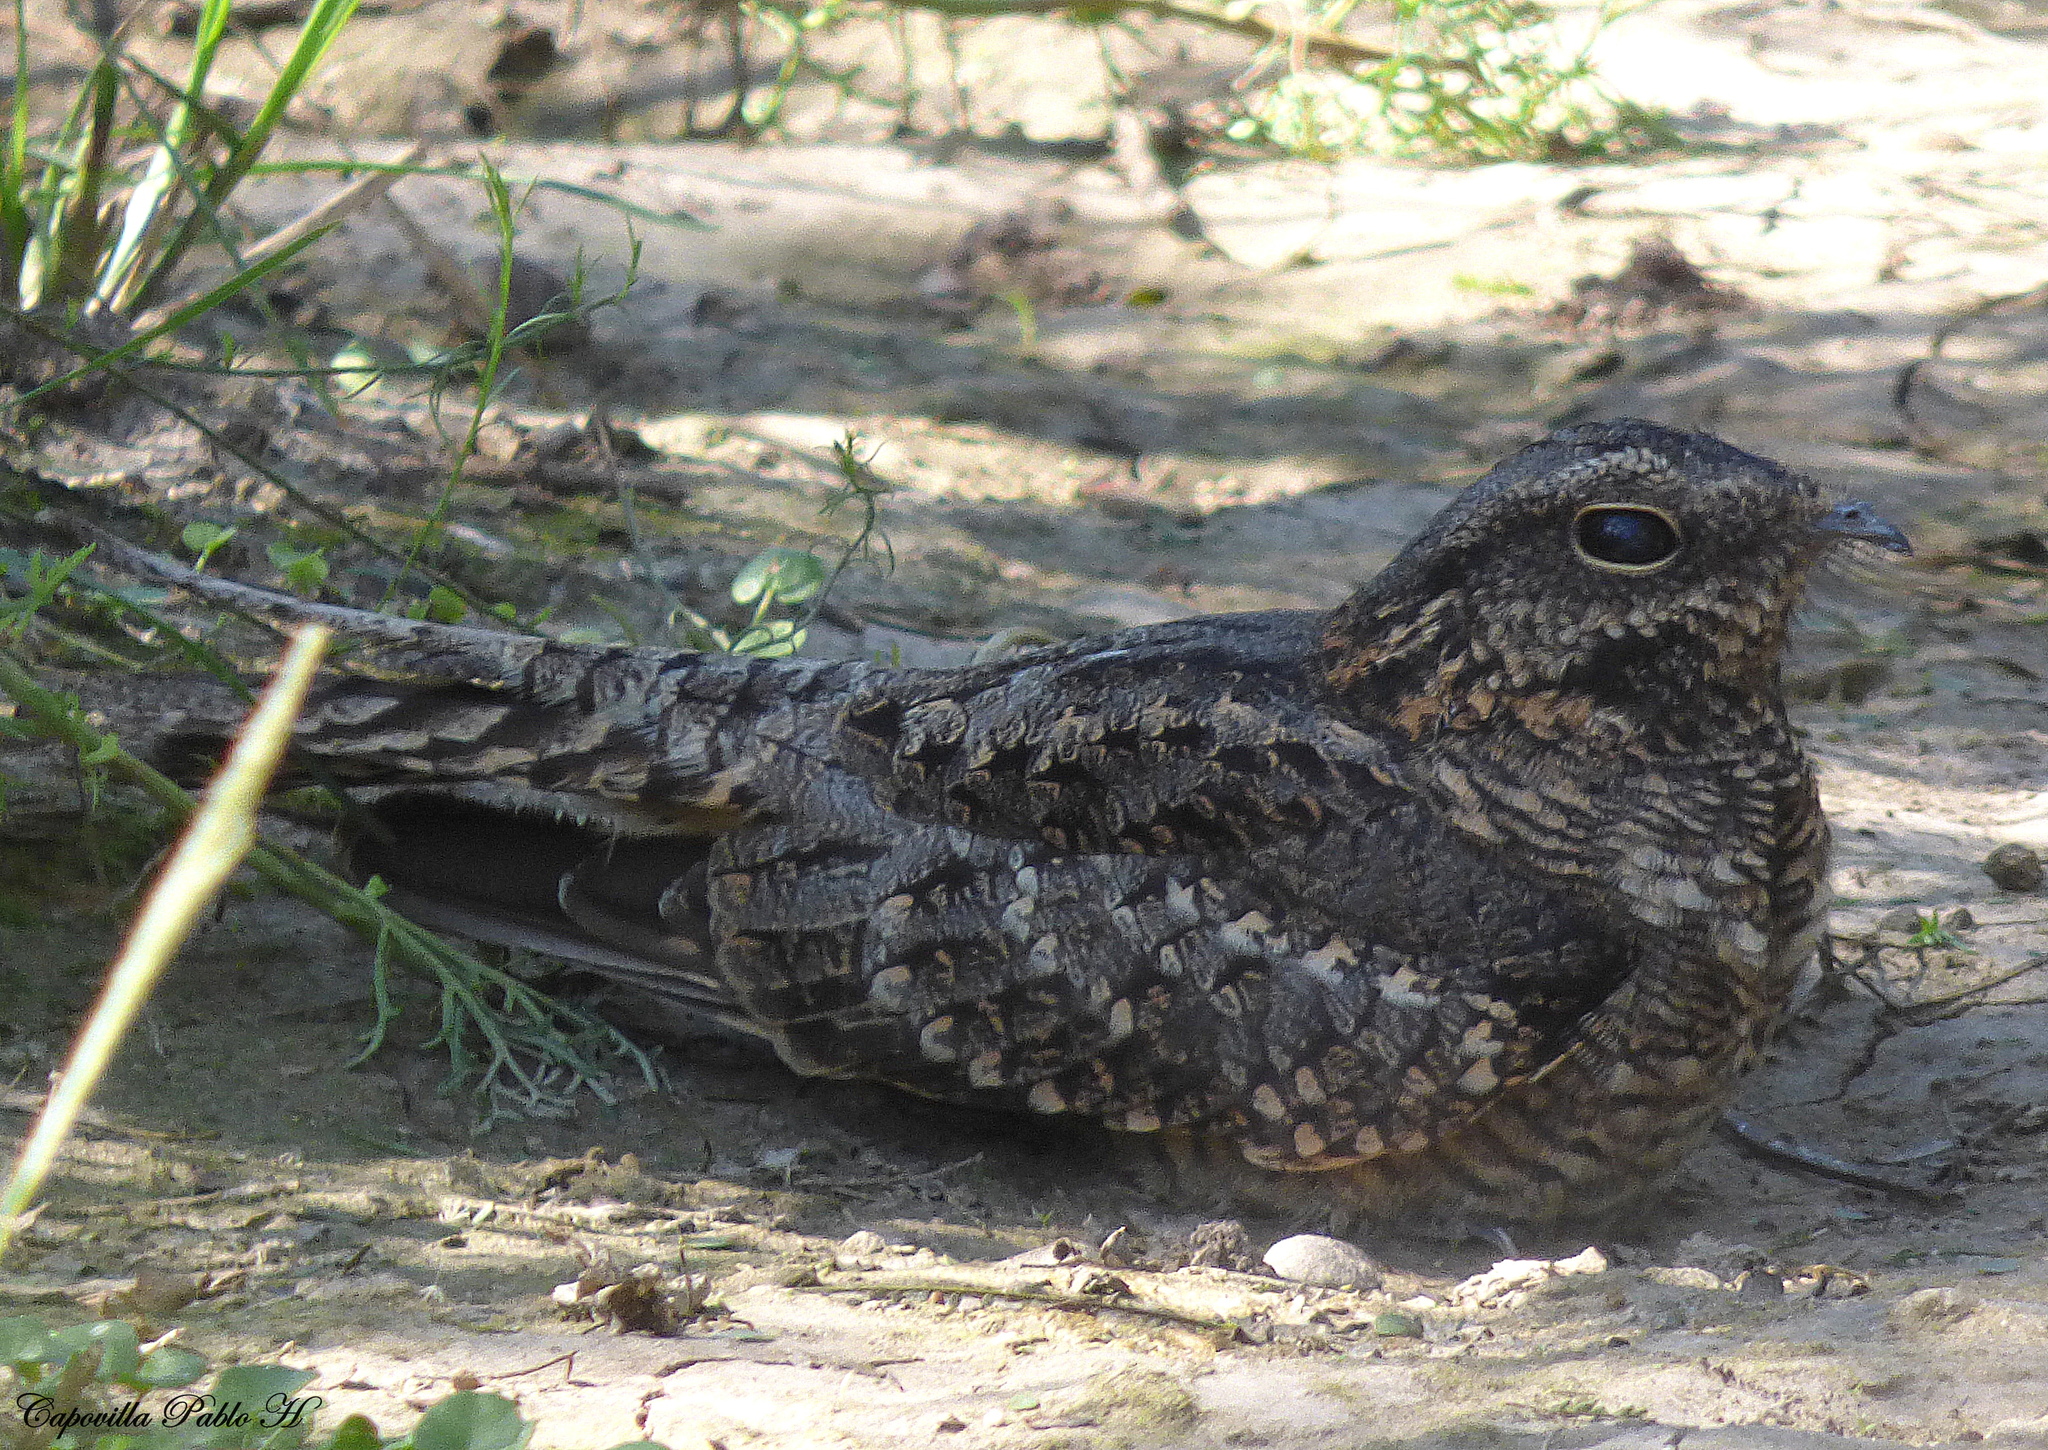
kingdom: Animalia
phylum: Chordata
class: Aves
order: Caprimulgiformes
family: Caprimulgidae
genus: Hydropsalis
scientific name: Hydropsalis torquata
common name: Scissor-tailed nightjar
